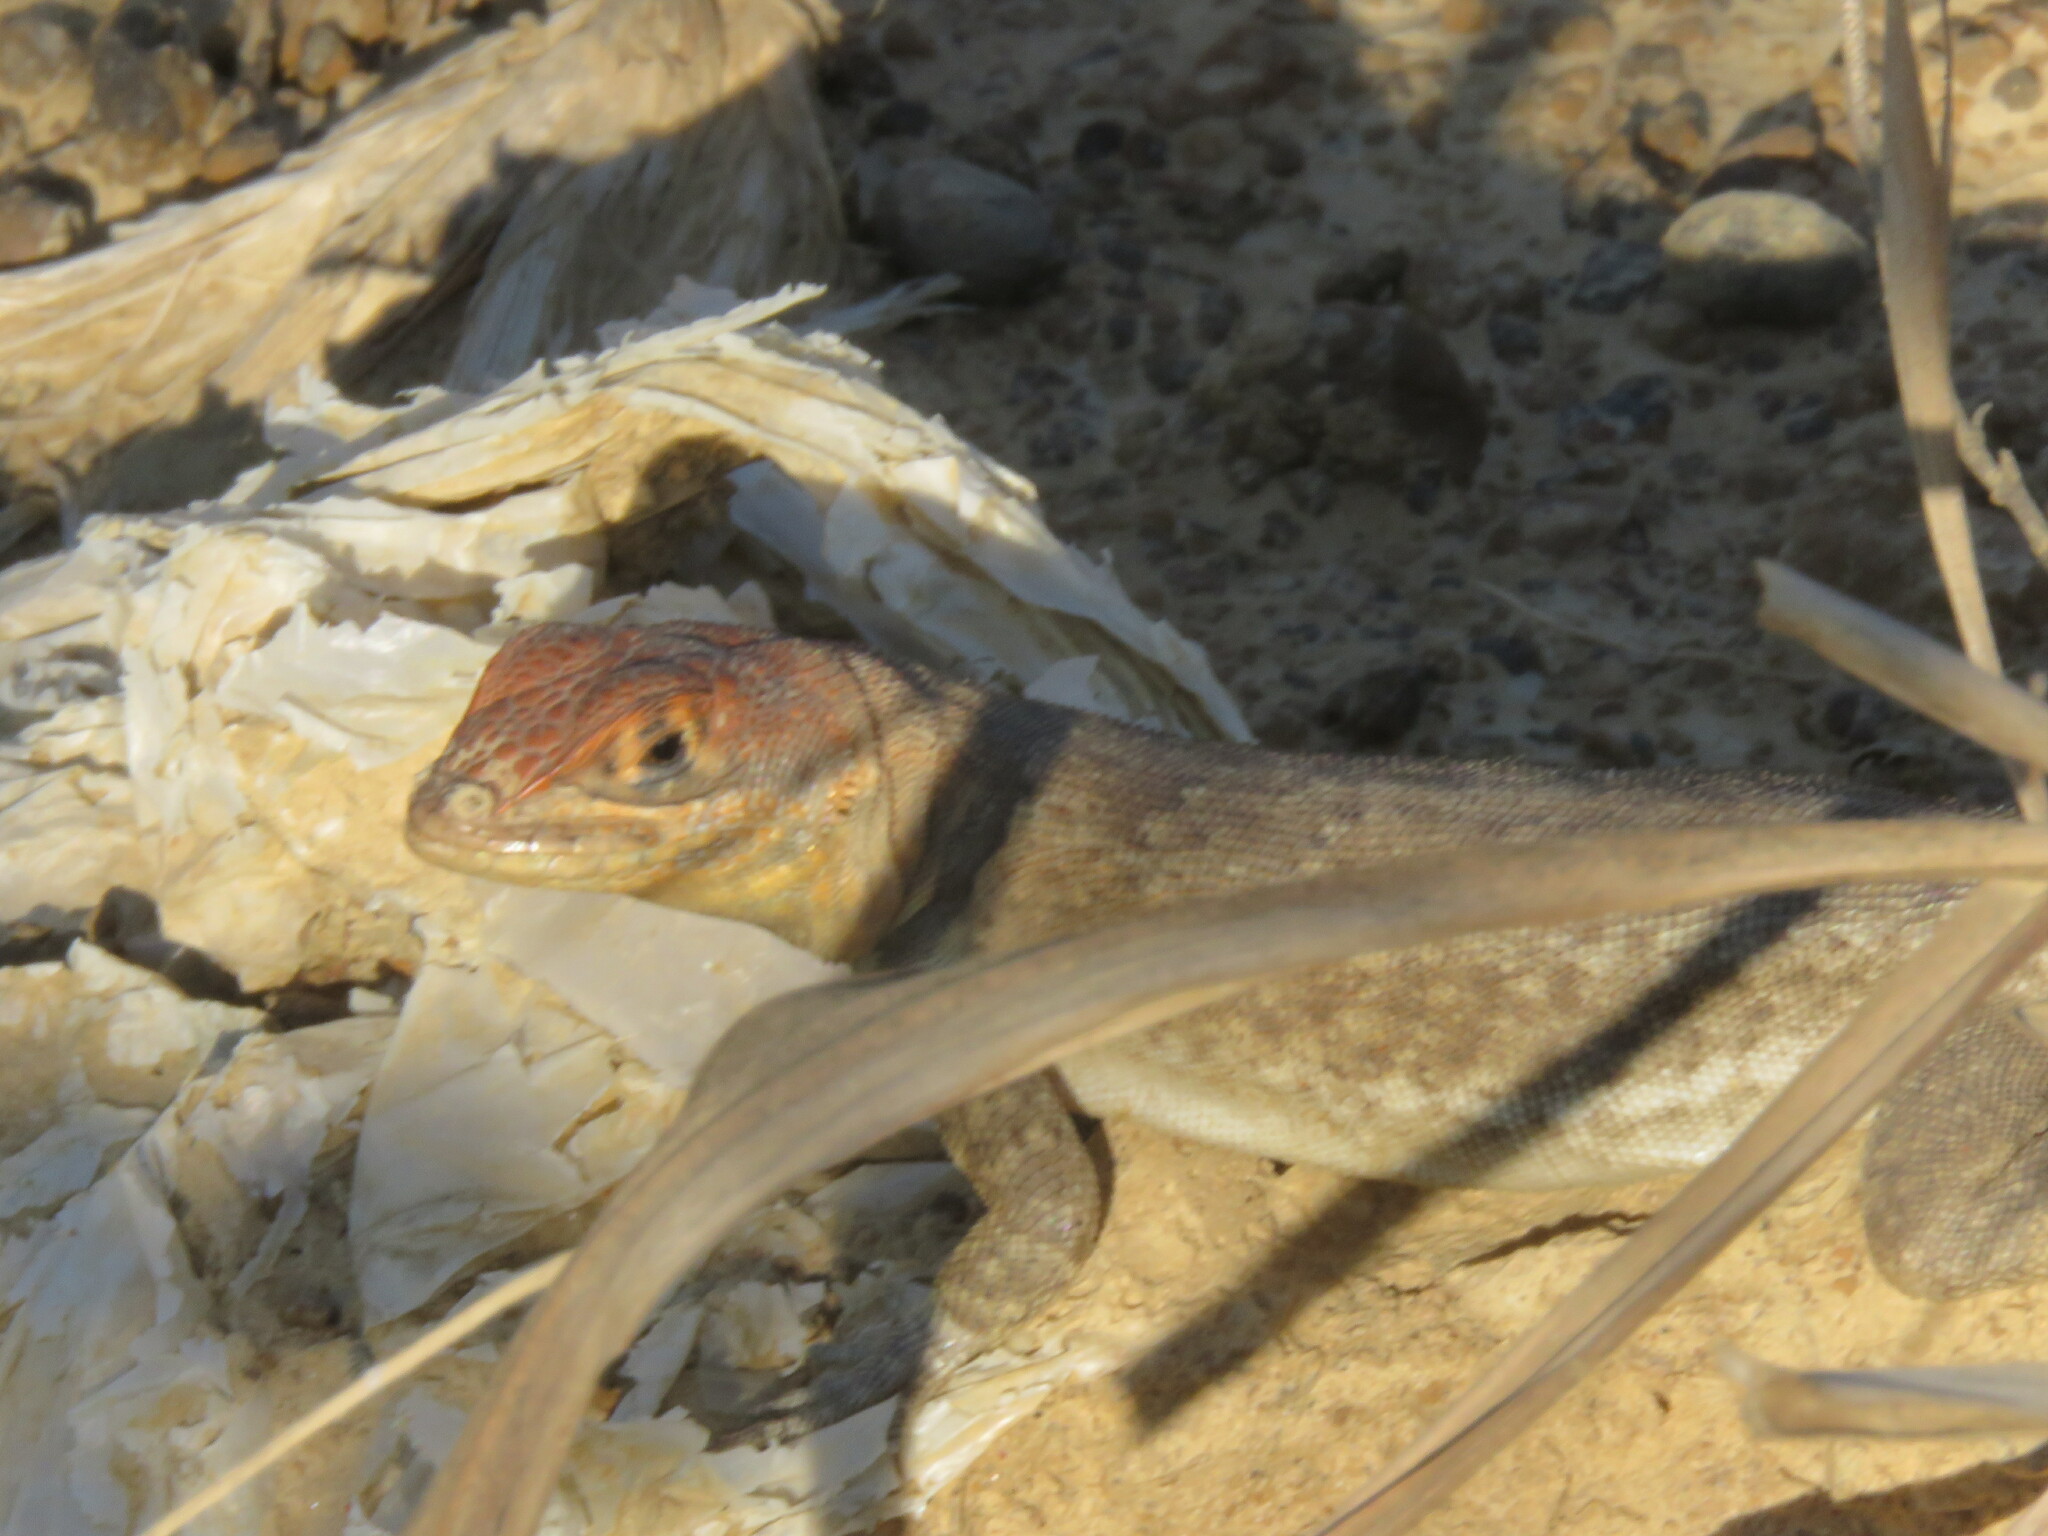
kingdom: Animalia
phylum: Chordata
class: Squamata
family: Tropiduridae
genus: Tropidurus
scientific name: Tropidurus etheridgei
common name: Etheridge's lava lizard
